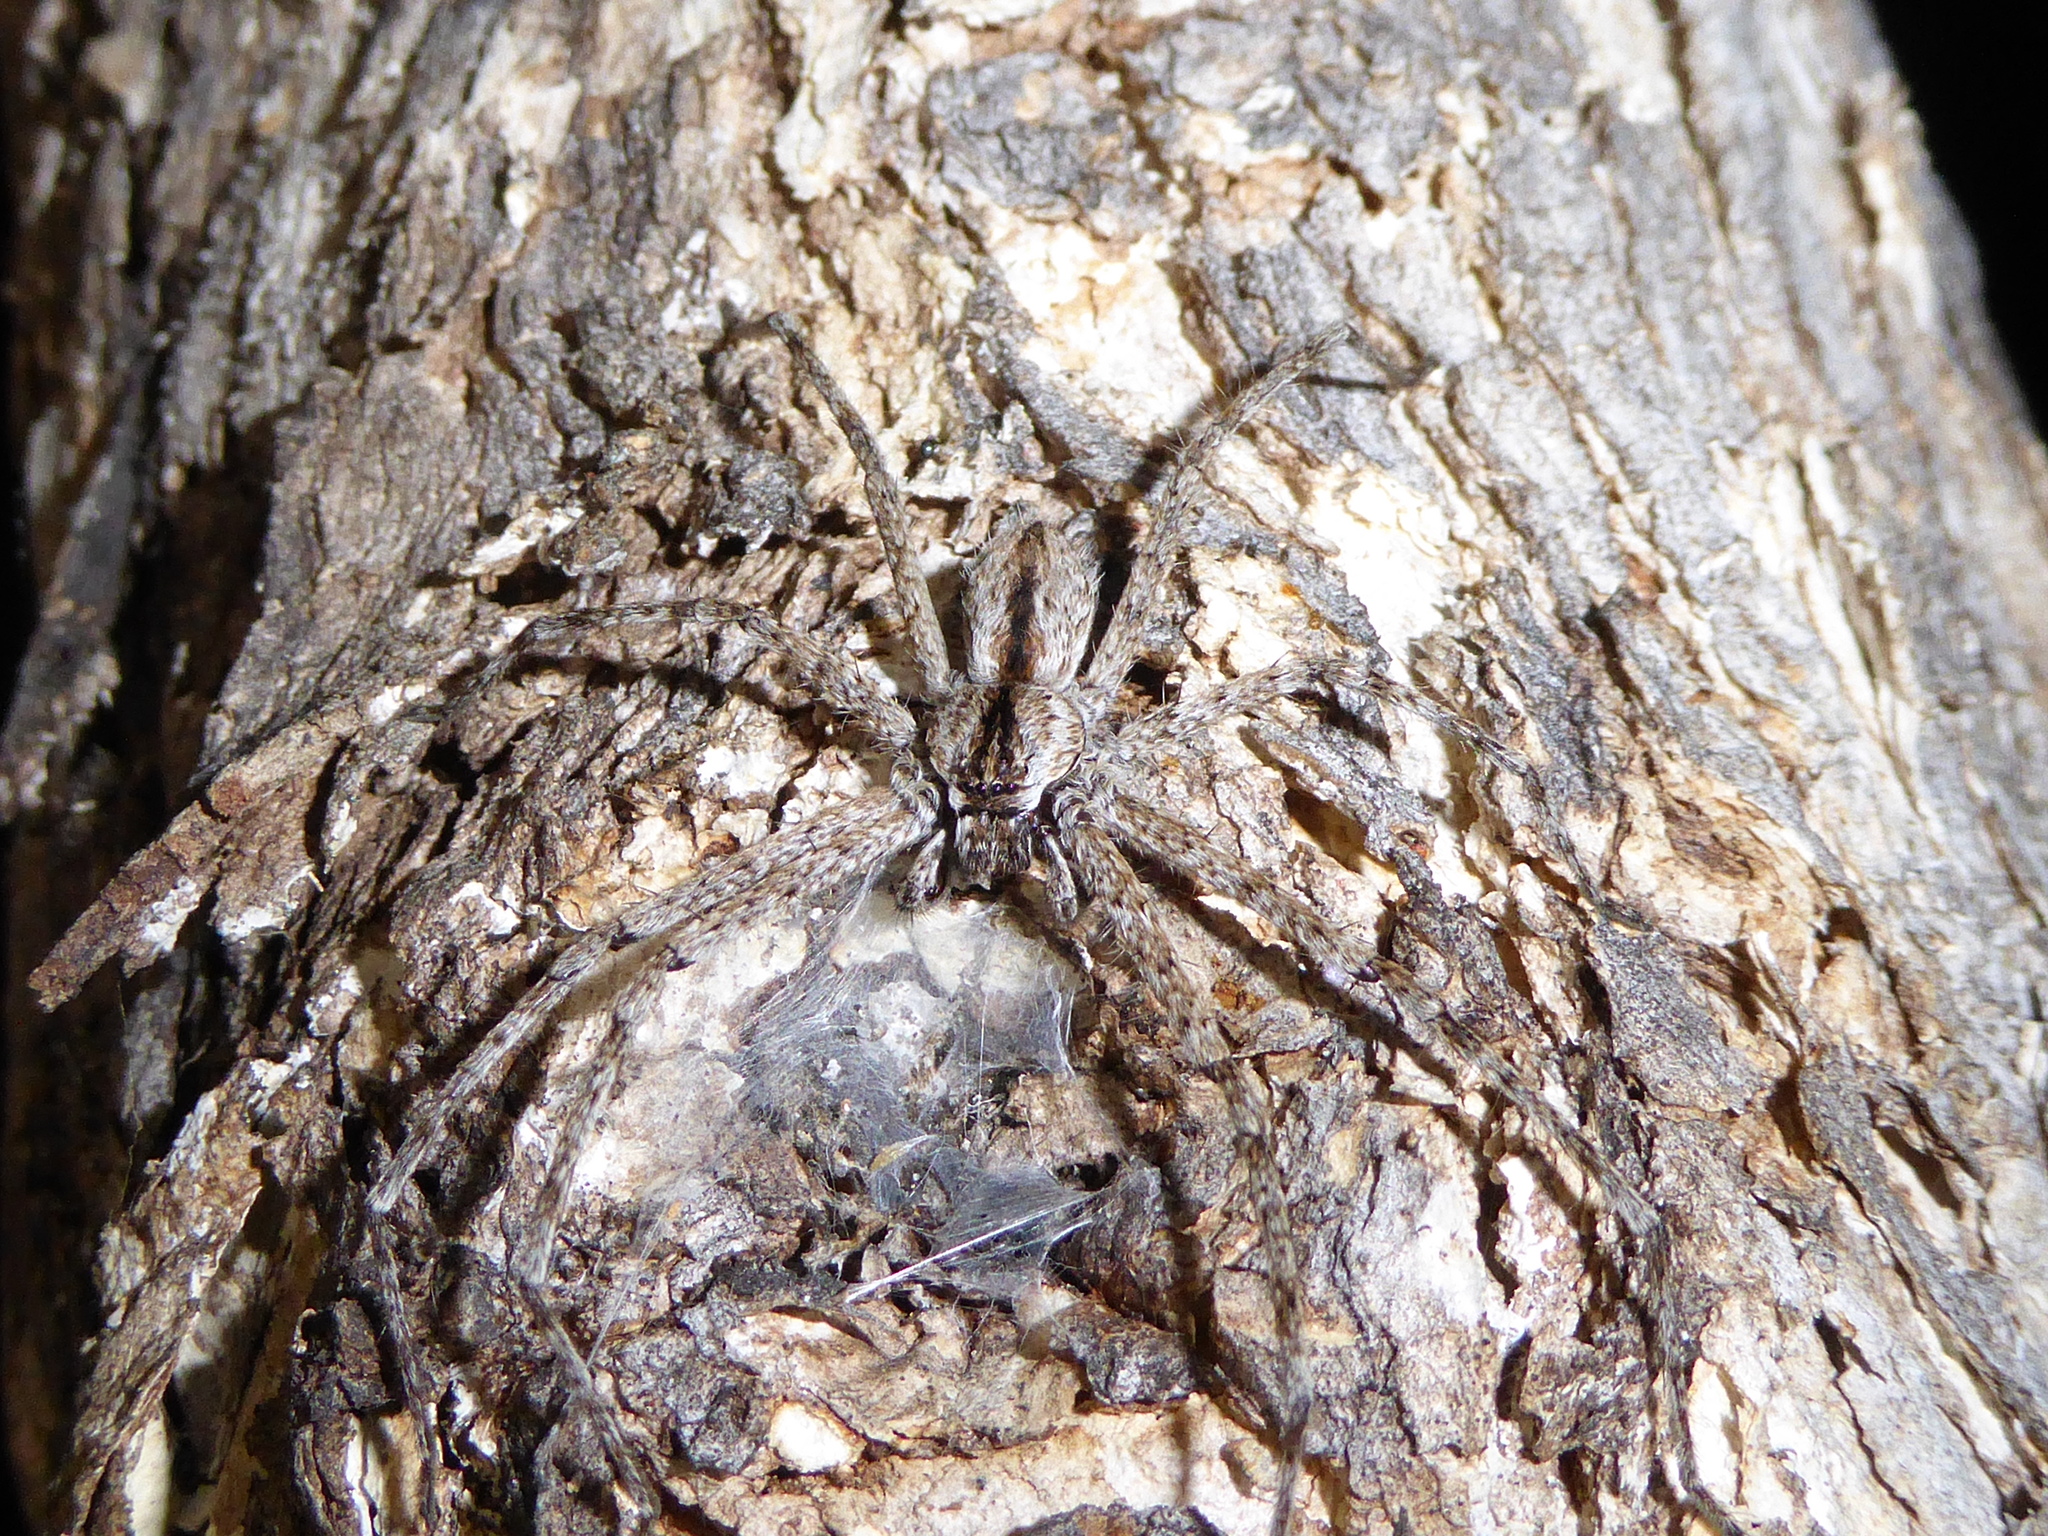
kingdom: Animalia
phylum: Arthropoda
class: Arachnida
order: Araneae
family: Sparassidae
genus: Pediana
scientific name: Pediana regina
